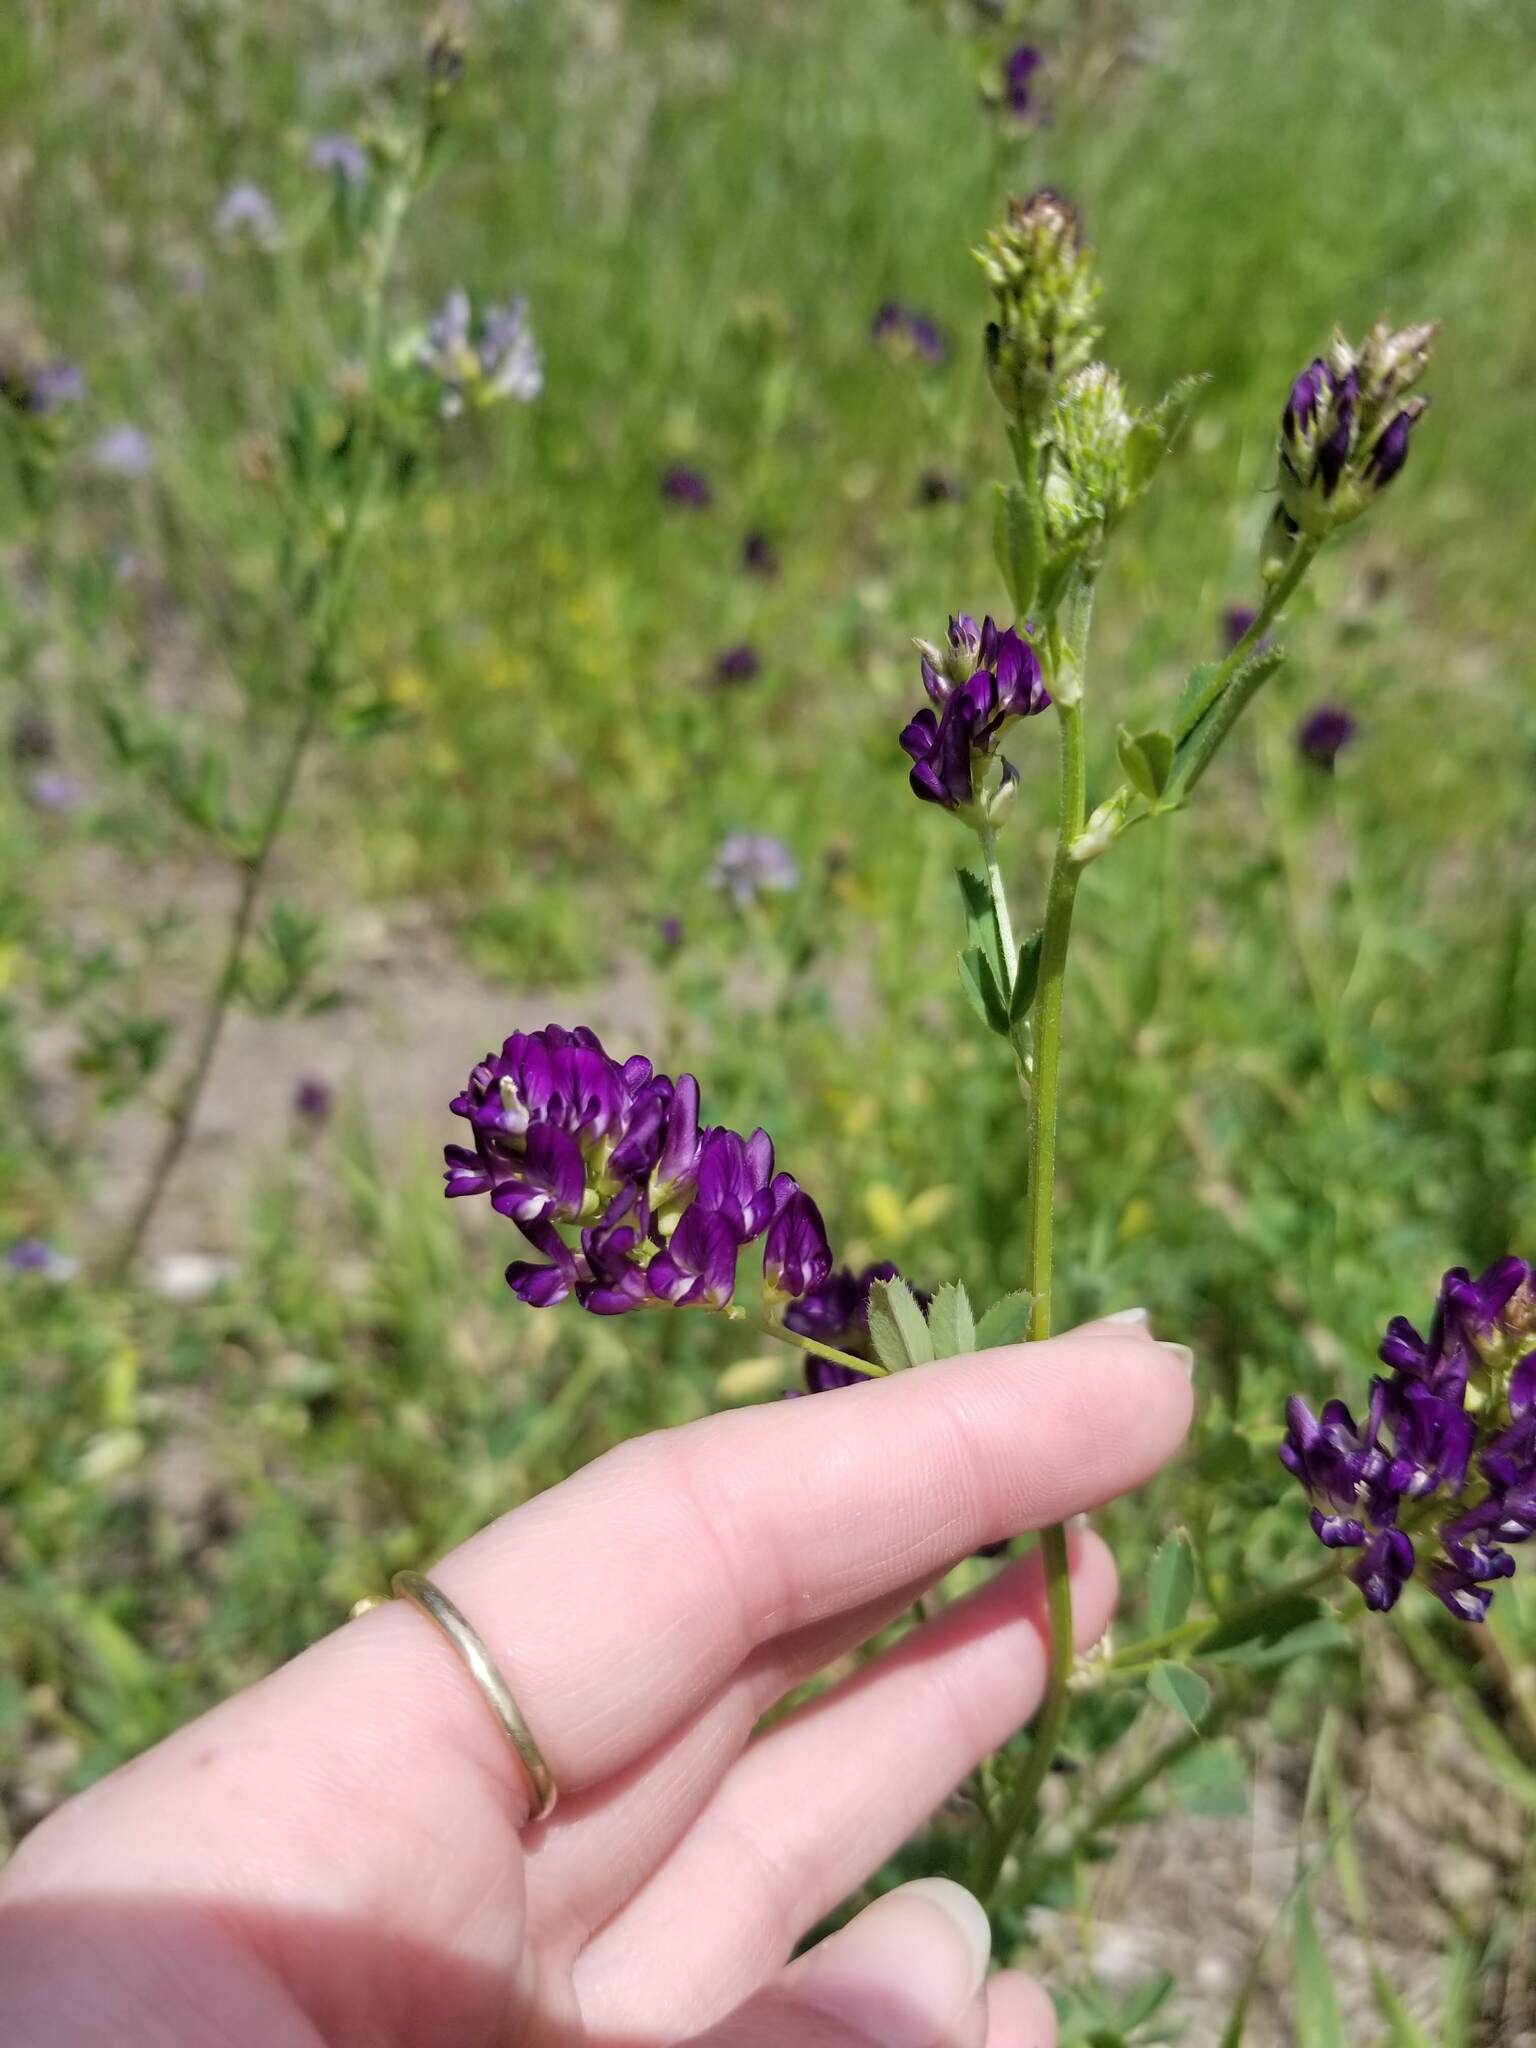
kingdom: Plantae
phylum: Tracheophyta
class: Magnoliopsida
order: Fabales
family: Fabaceae
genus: Medicago
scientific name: Medicago sativa
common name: Alfalfa
